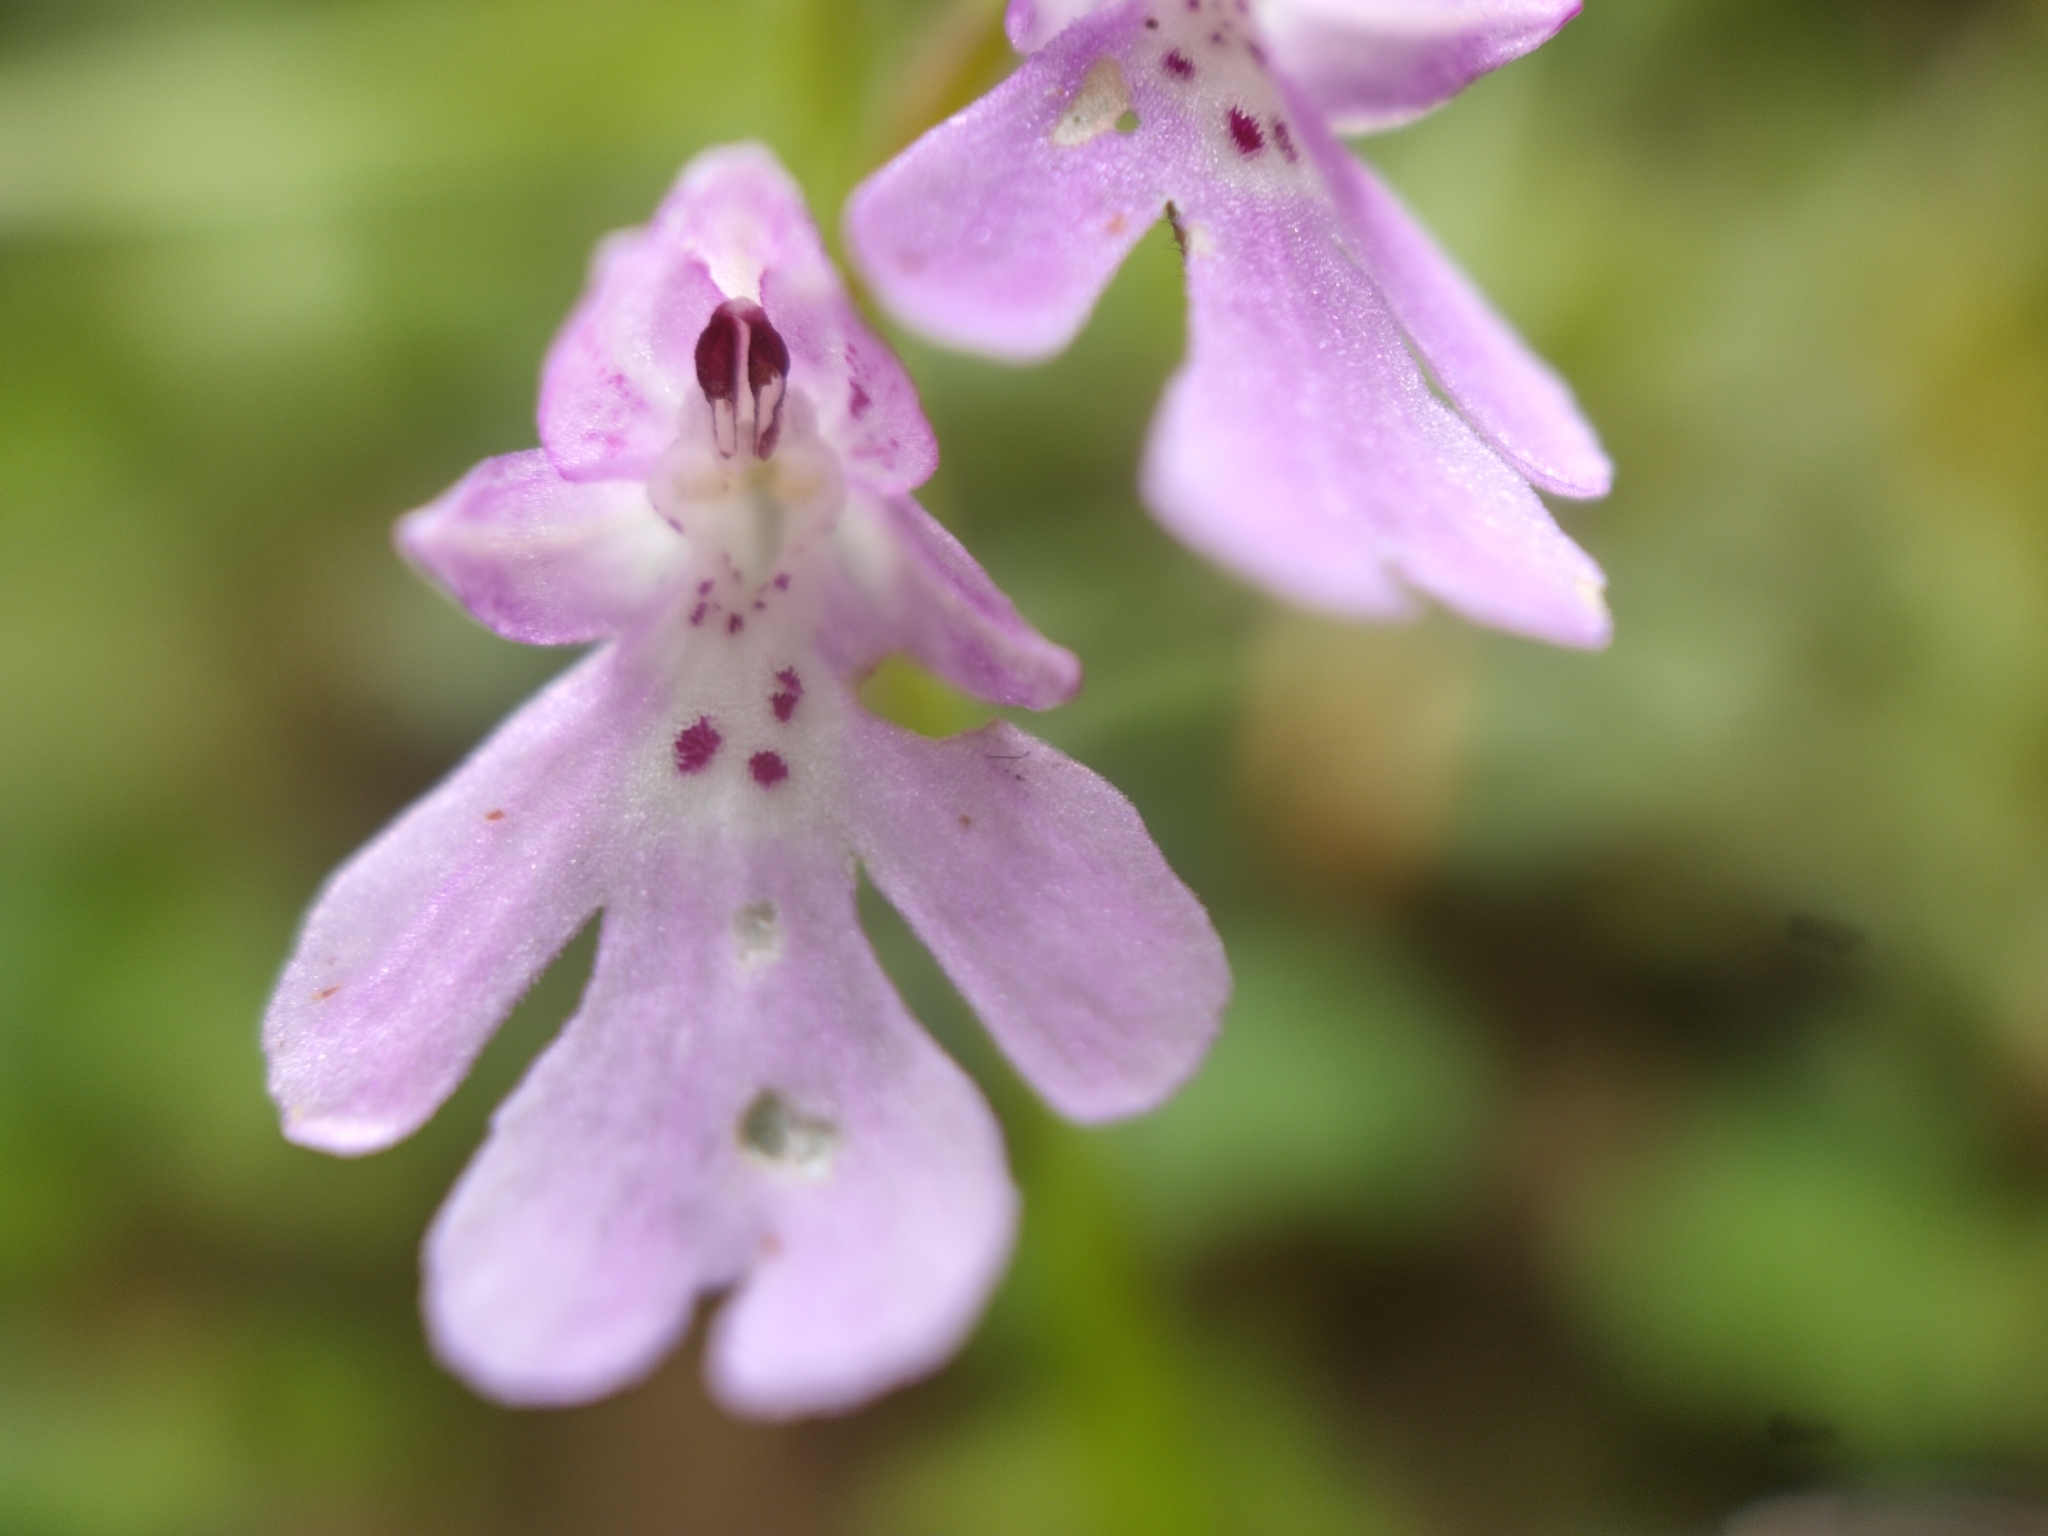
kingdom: Plantae
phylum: Tracheophyta
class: Liliopsida
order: Asparagales
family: Orchidaceae
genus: Hemipilia
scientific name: Hemipilia faberi
